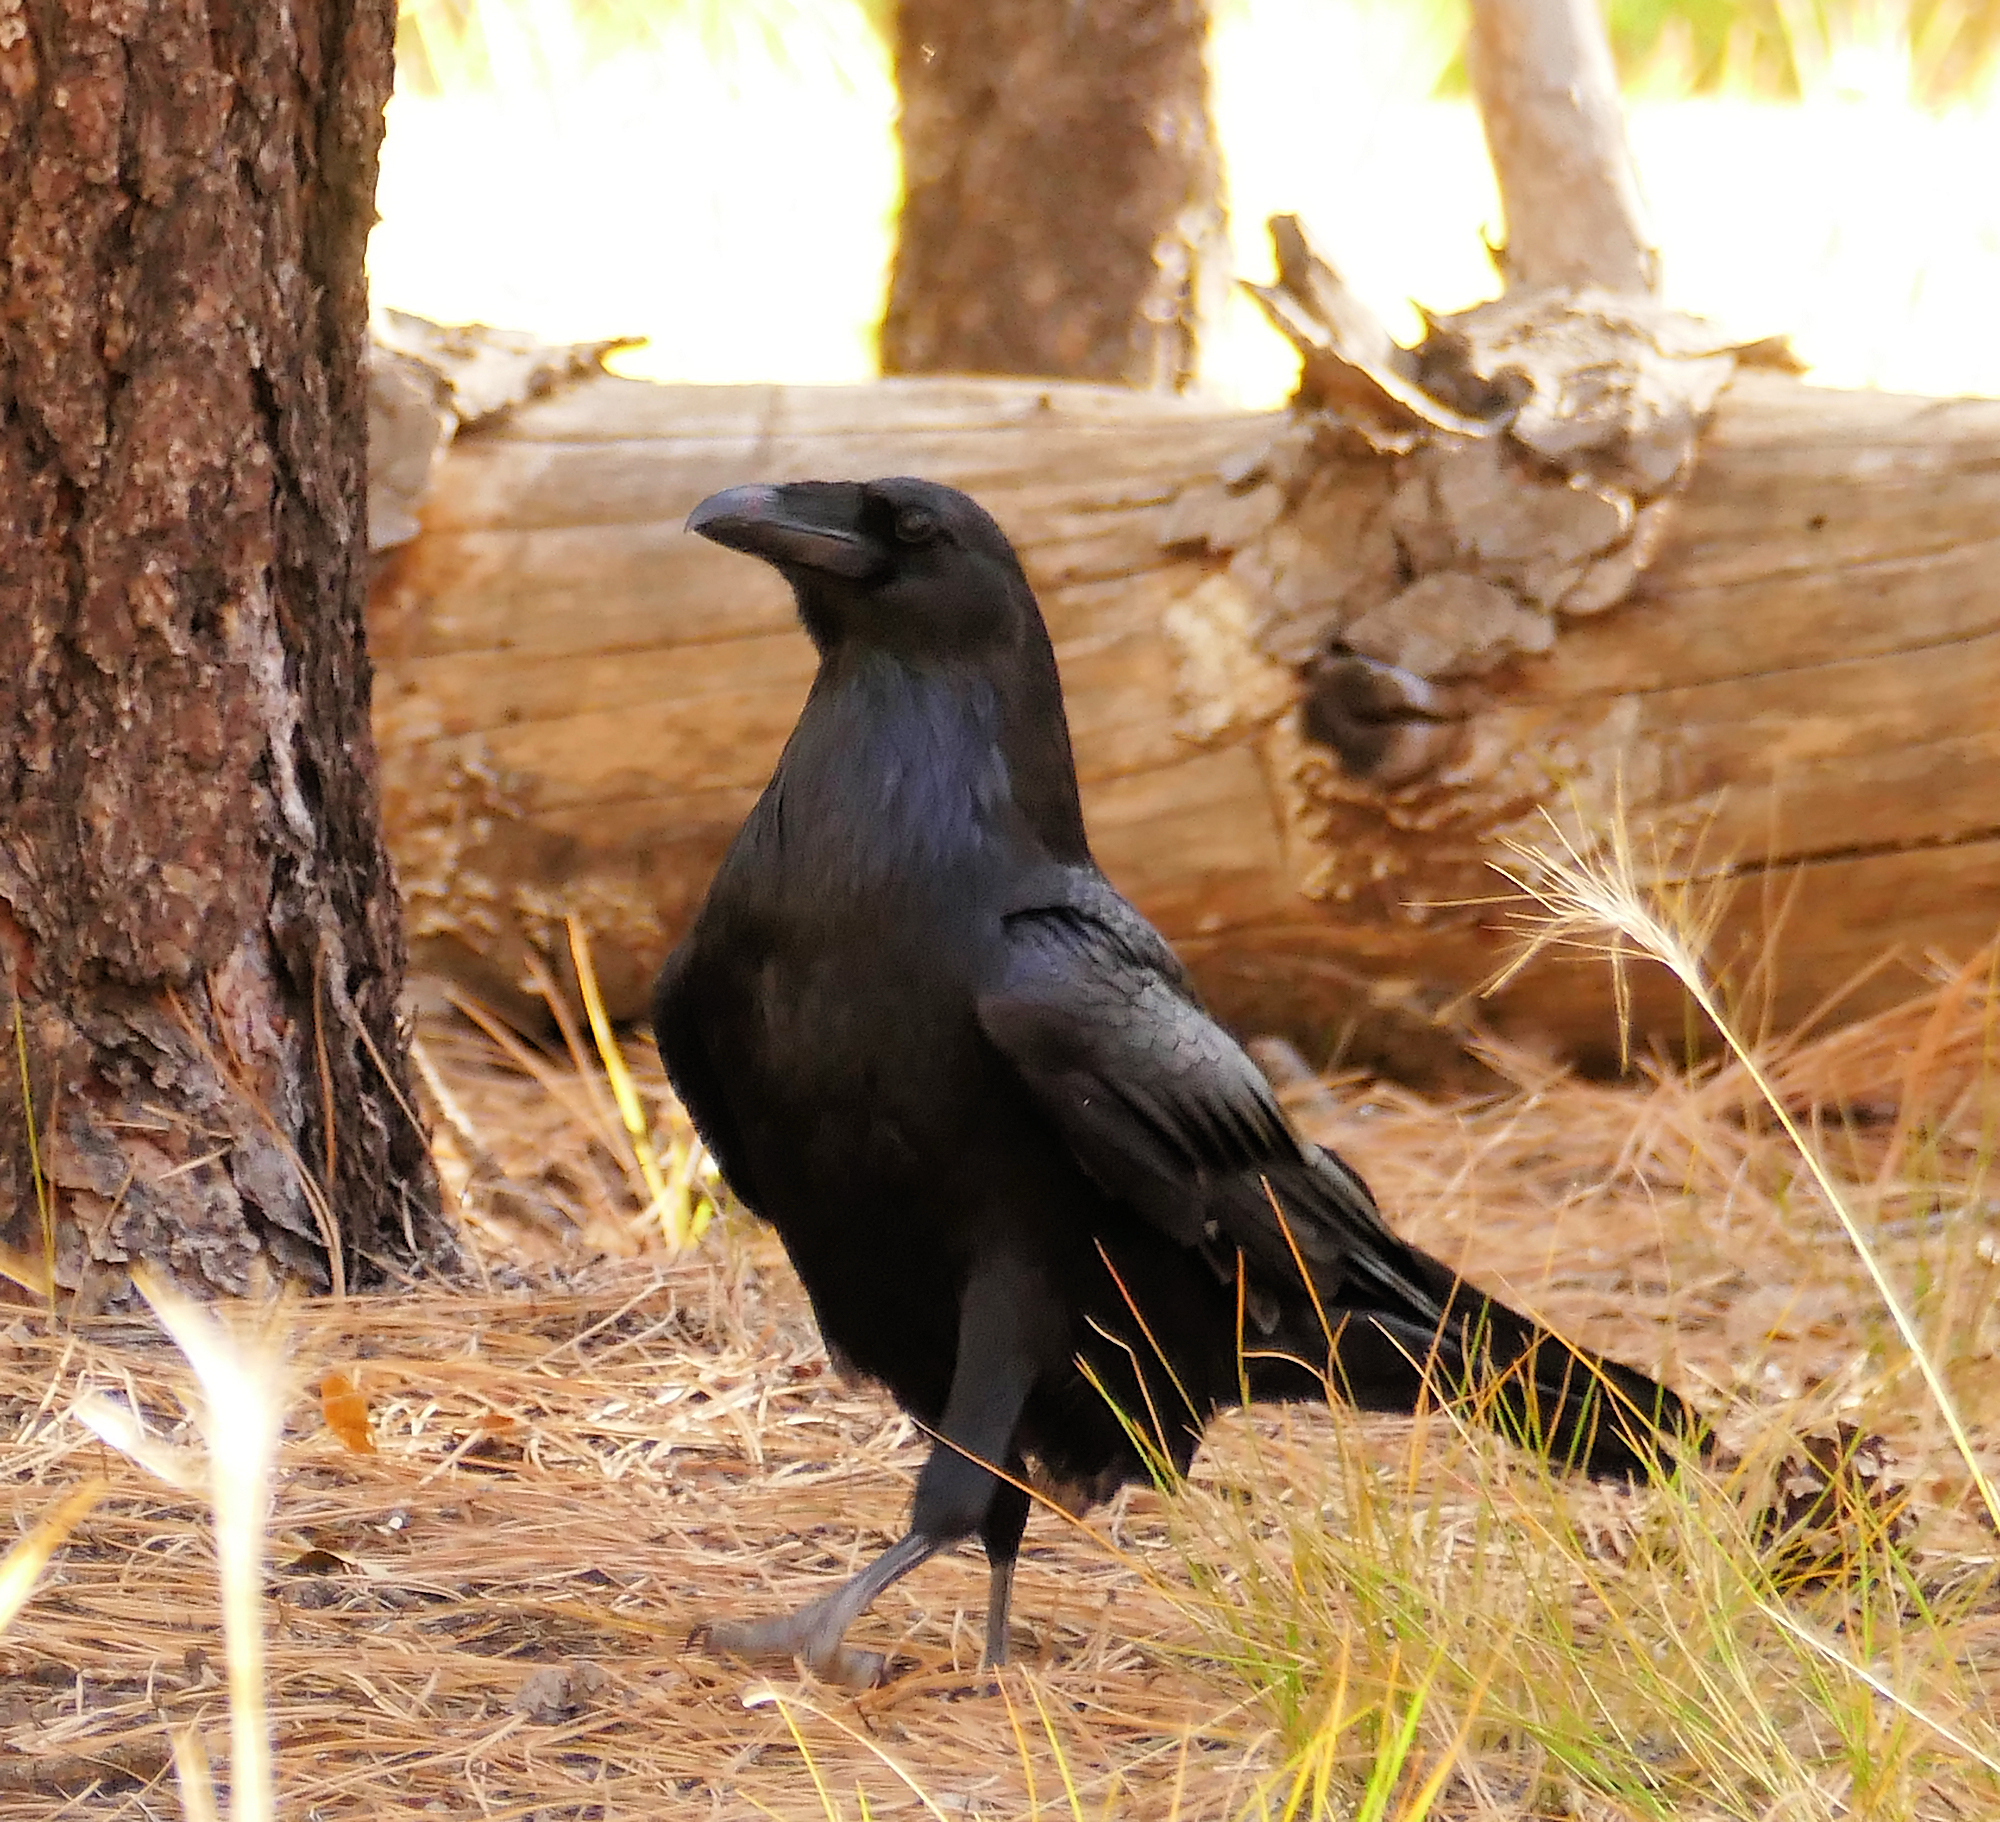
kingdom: Animalia
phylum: Chordata
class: Aves
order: Passeriformes
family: Corvidae
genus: Corvus
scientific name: Corvus corax
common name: Common raven
